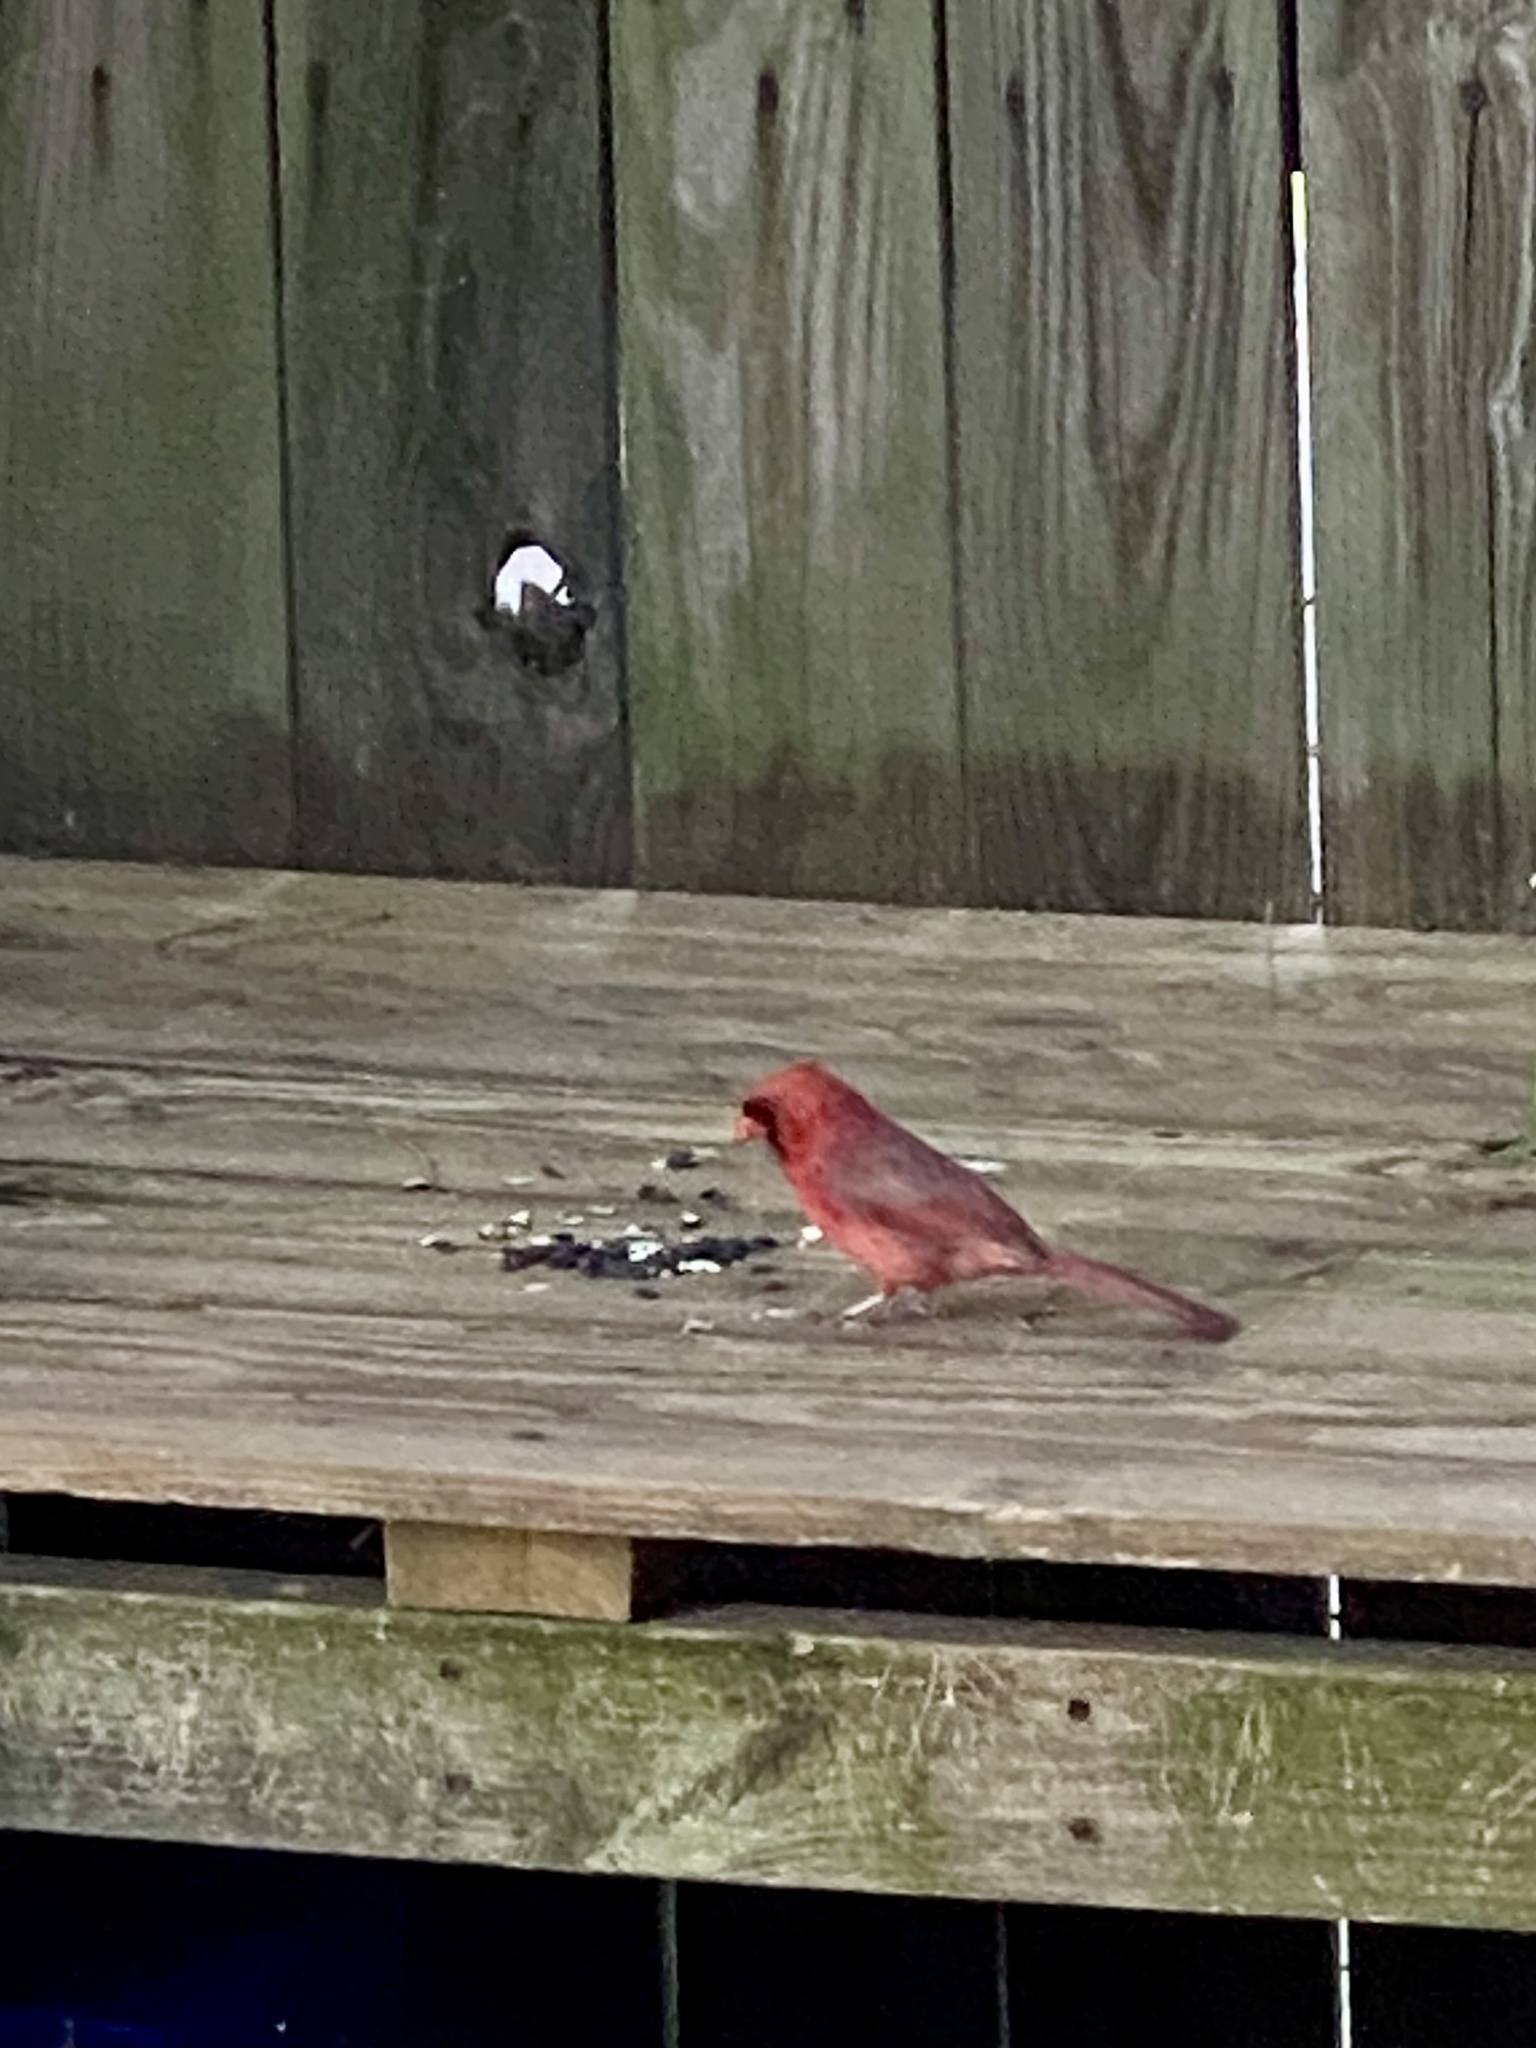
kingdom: Animalia
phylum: Chordata
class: Aves
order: Passeriformes
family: Cardinalidae
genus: Cardinalis
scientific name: Cardinalis cardinalis
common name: Northern cardinal
